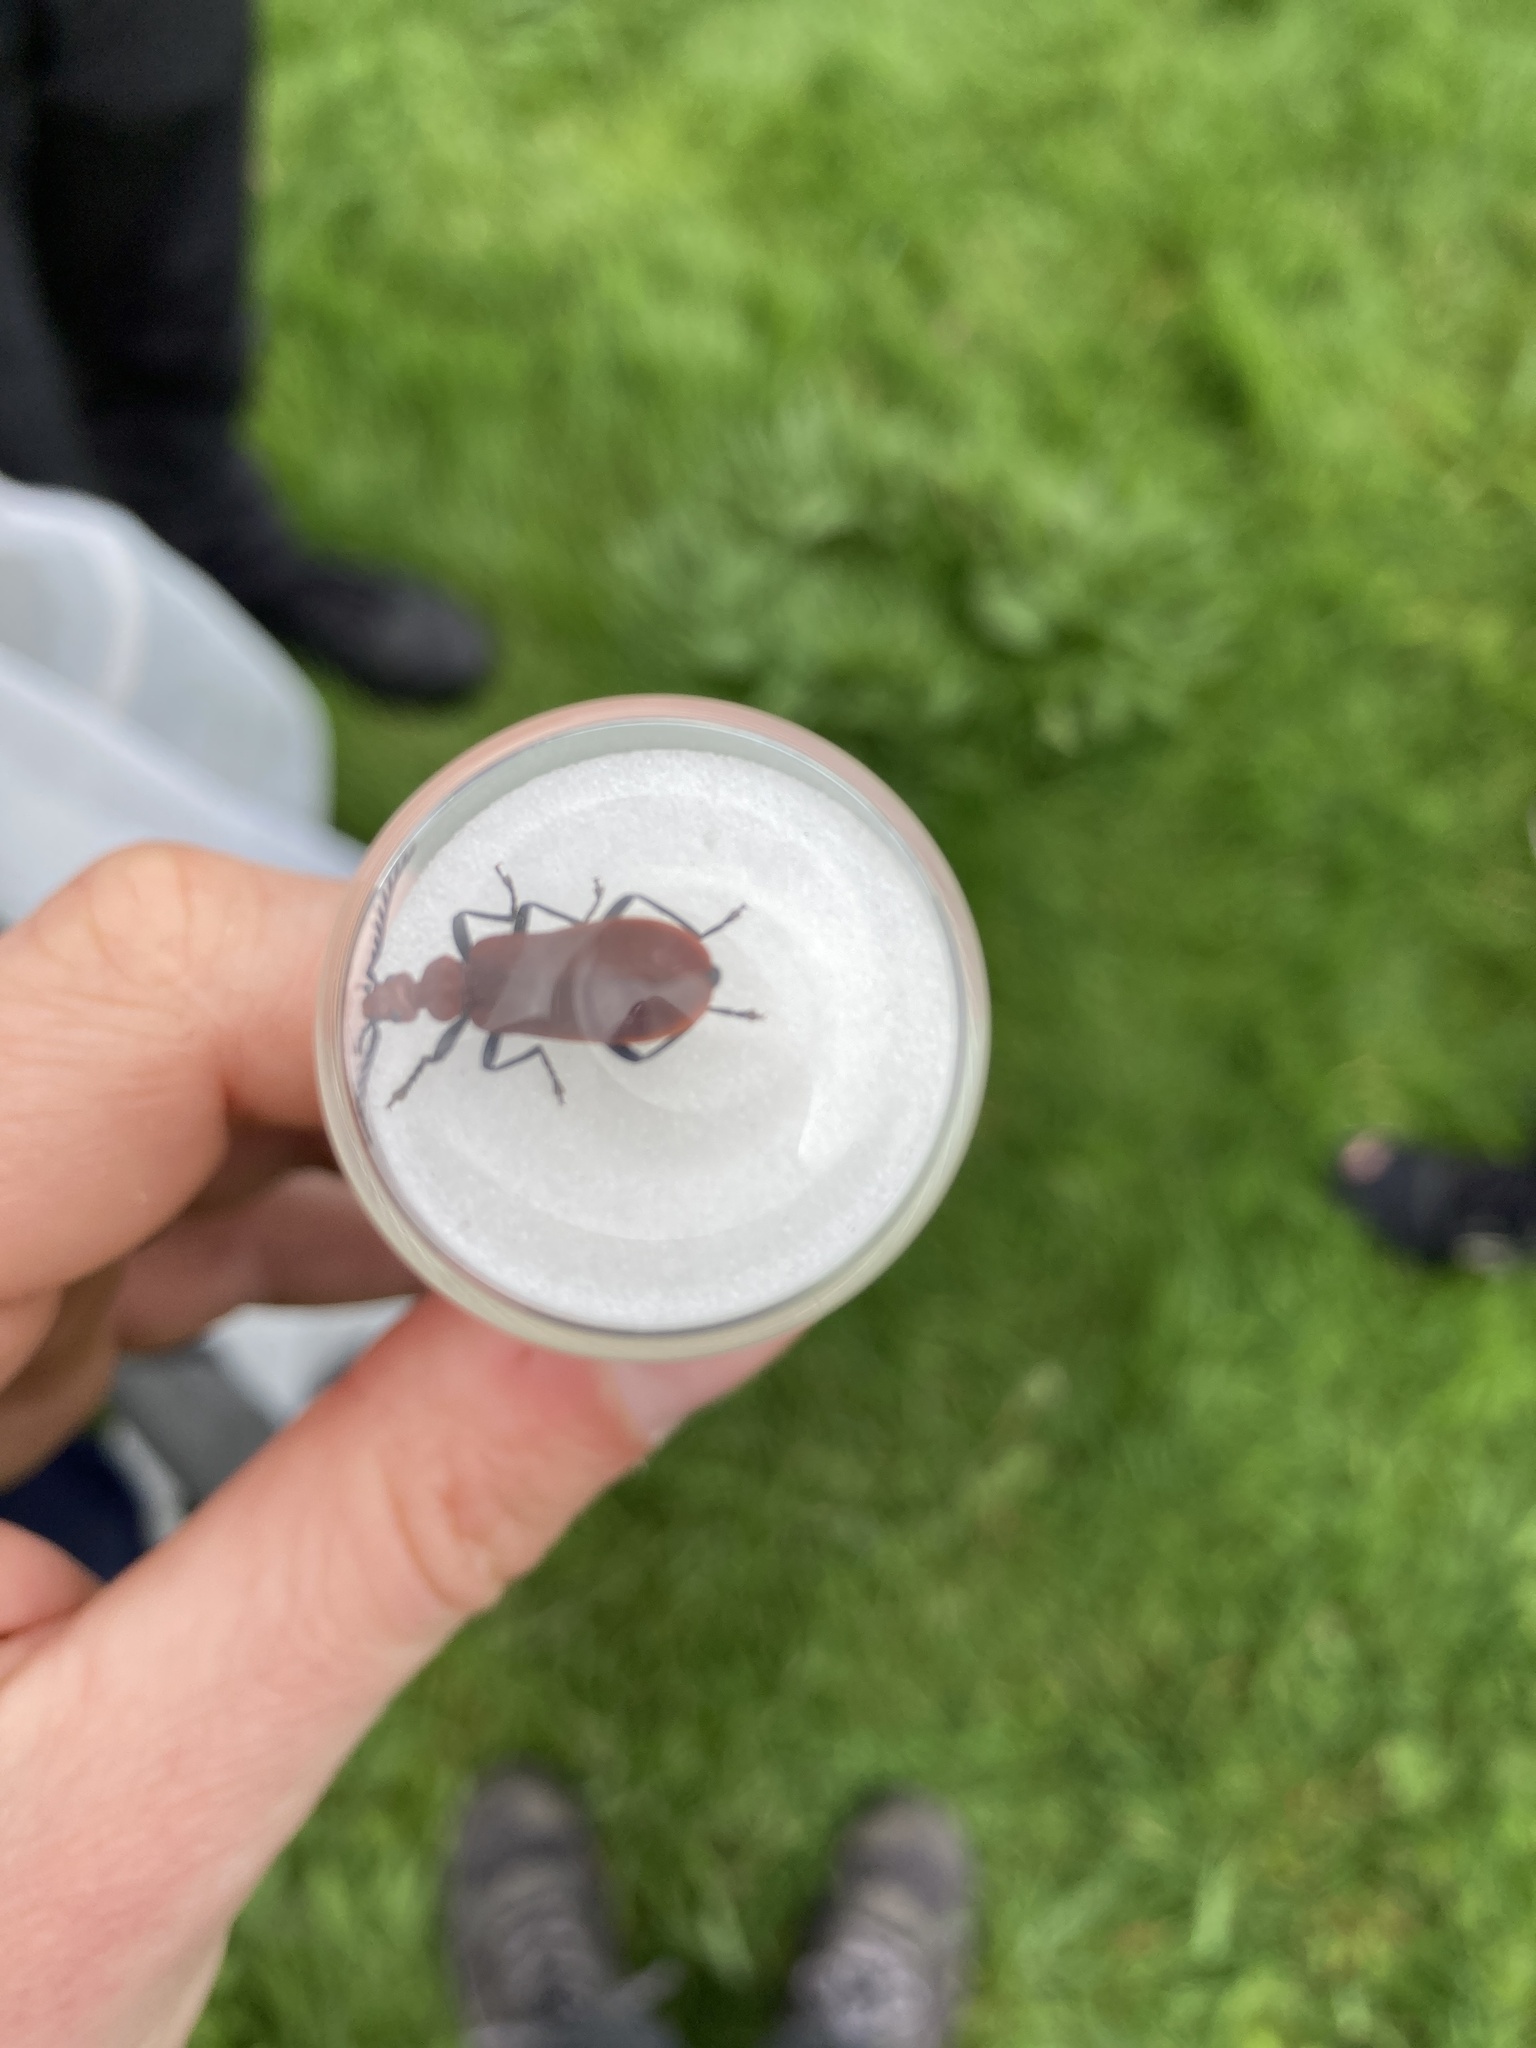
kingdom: Animalia
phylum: Arthropoda
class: Insecta
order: Coleoptera
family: Pyrochroidae
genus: Pyrochroa
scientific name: Pyrochroa serraticornis
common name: Red-headed cardinal beetle
